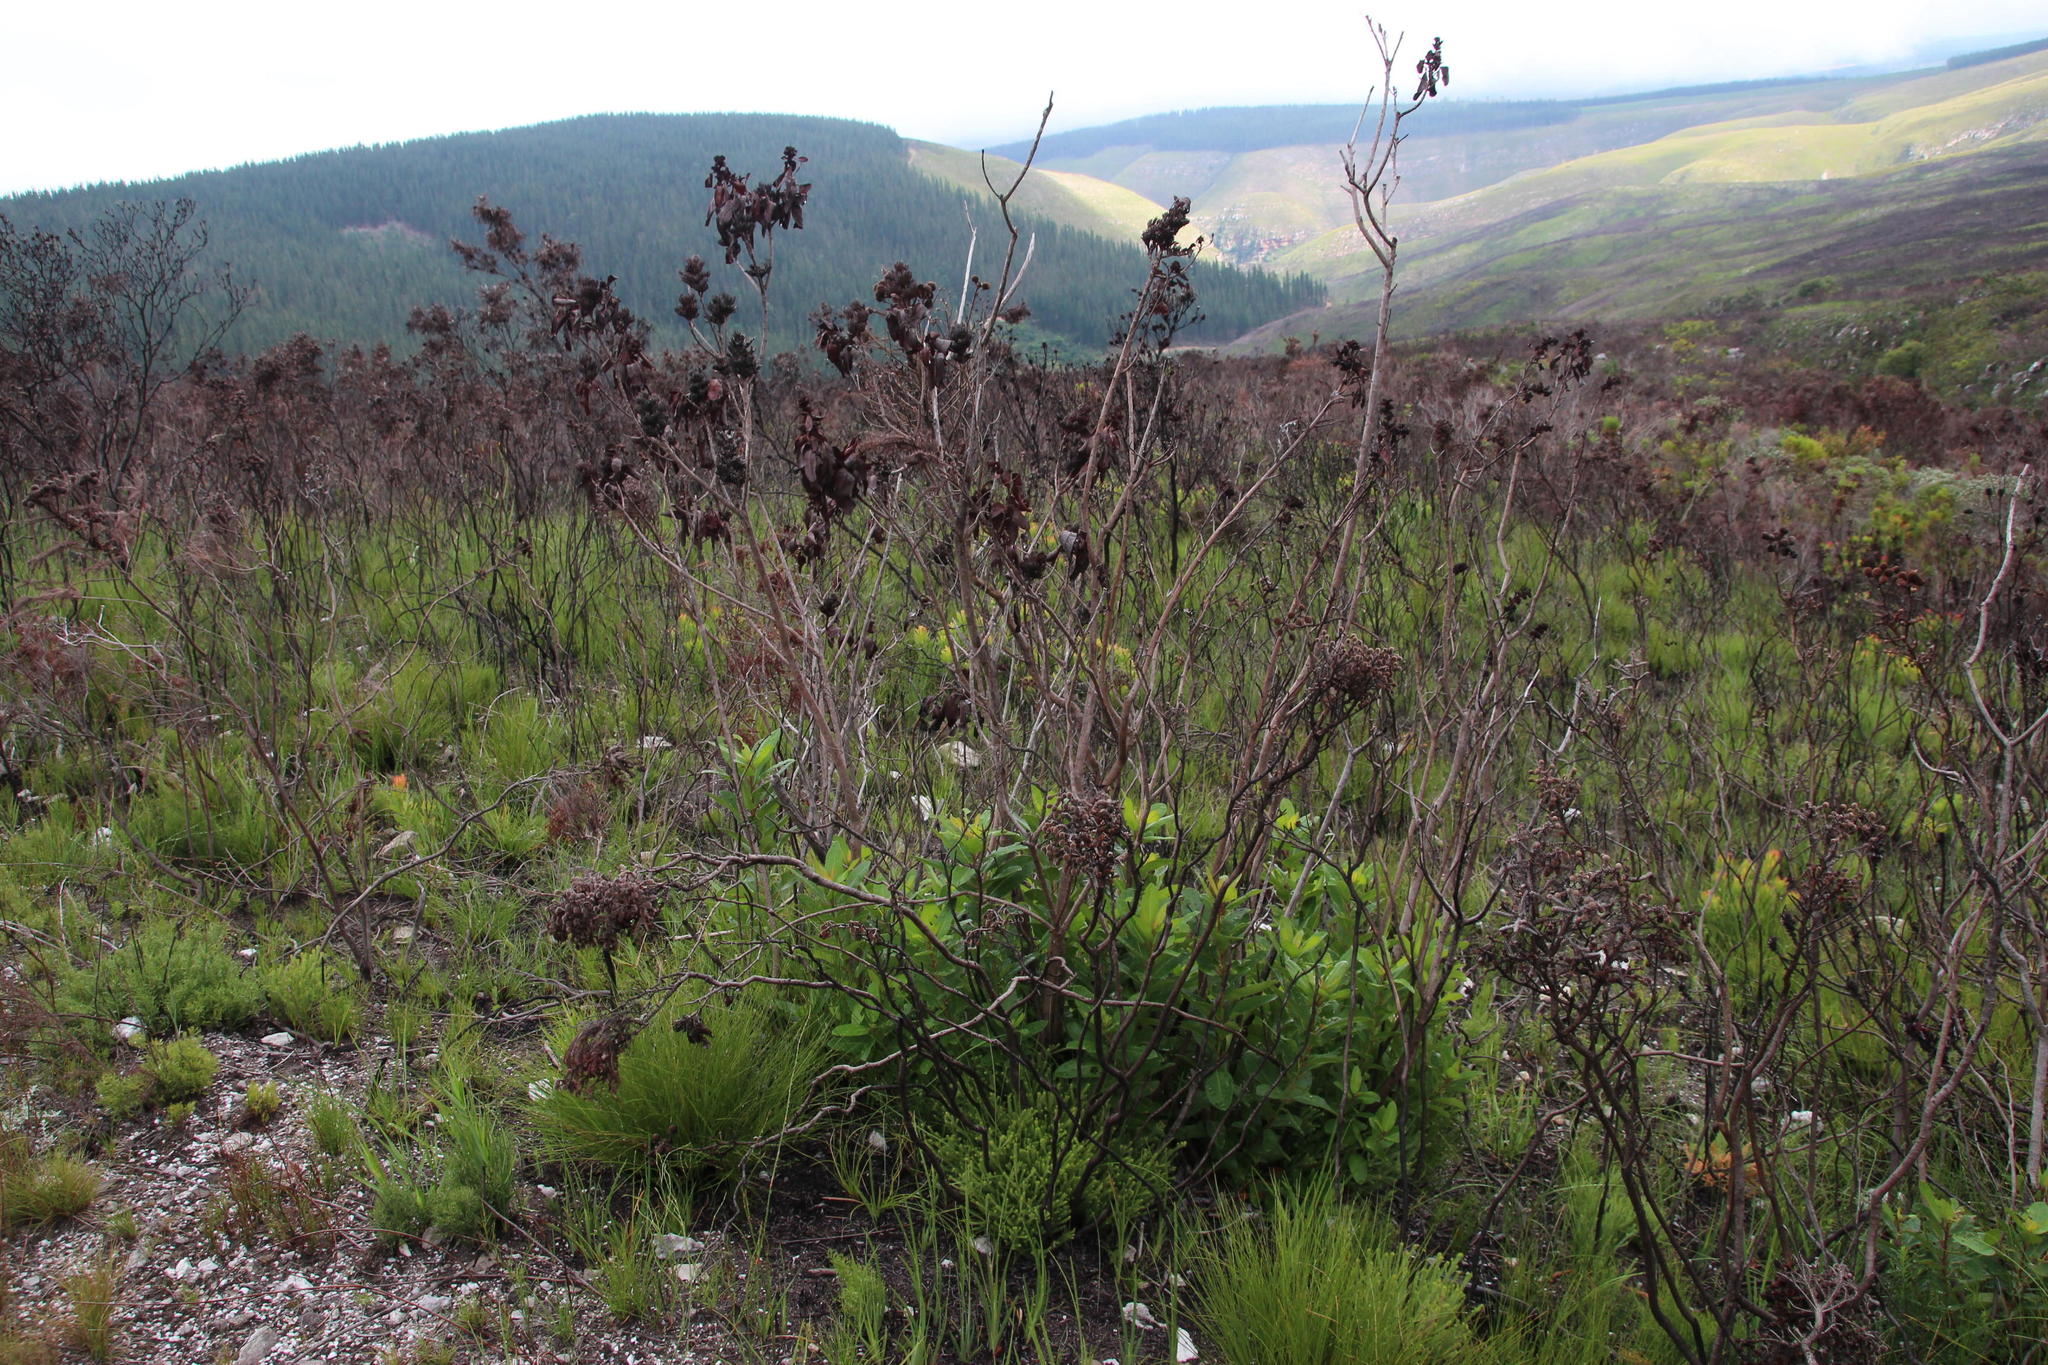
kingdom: Plantae
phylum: Tracheophyta
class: Magnoliopsida
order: Sapindales
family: Anacardiaceae
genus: Laurophyllus
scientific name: Laurophyllus capensis
